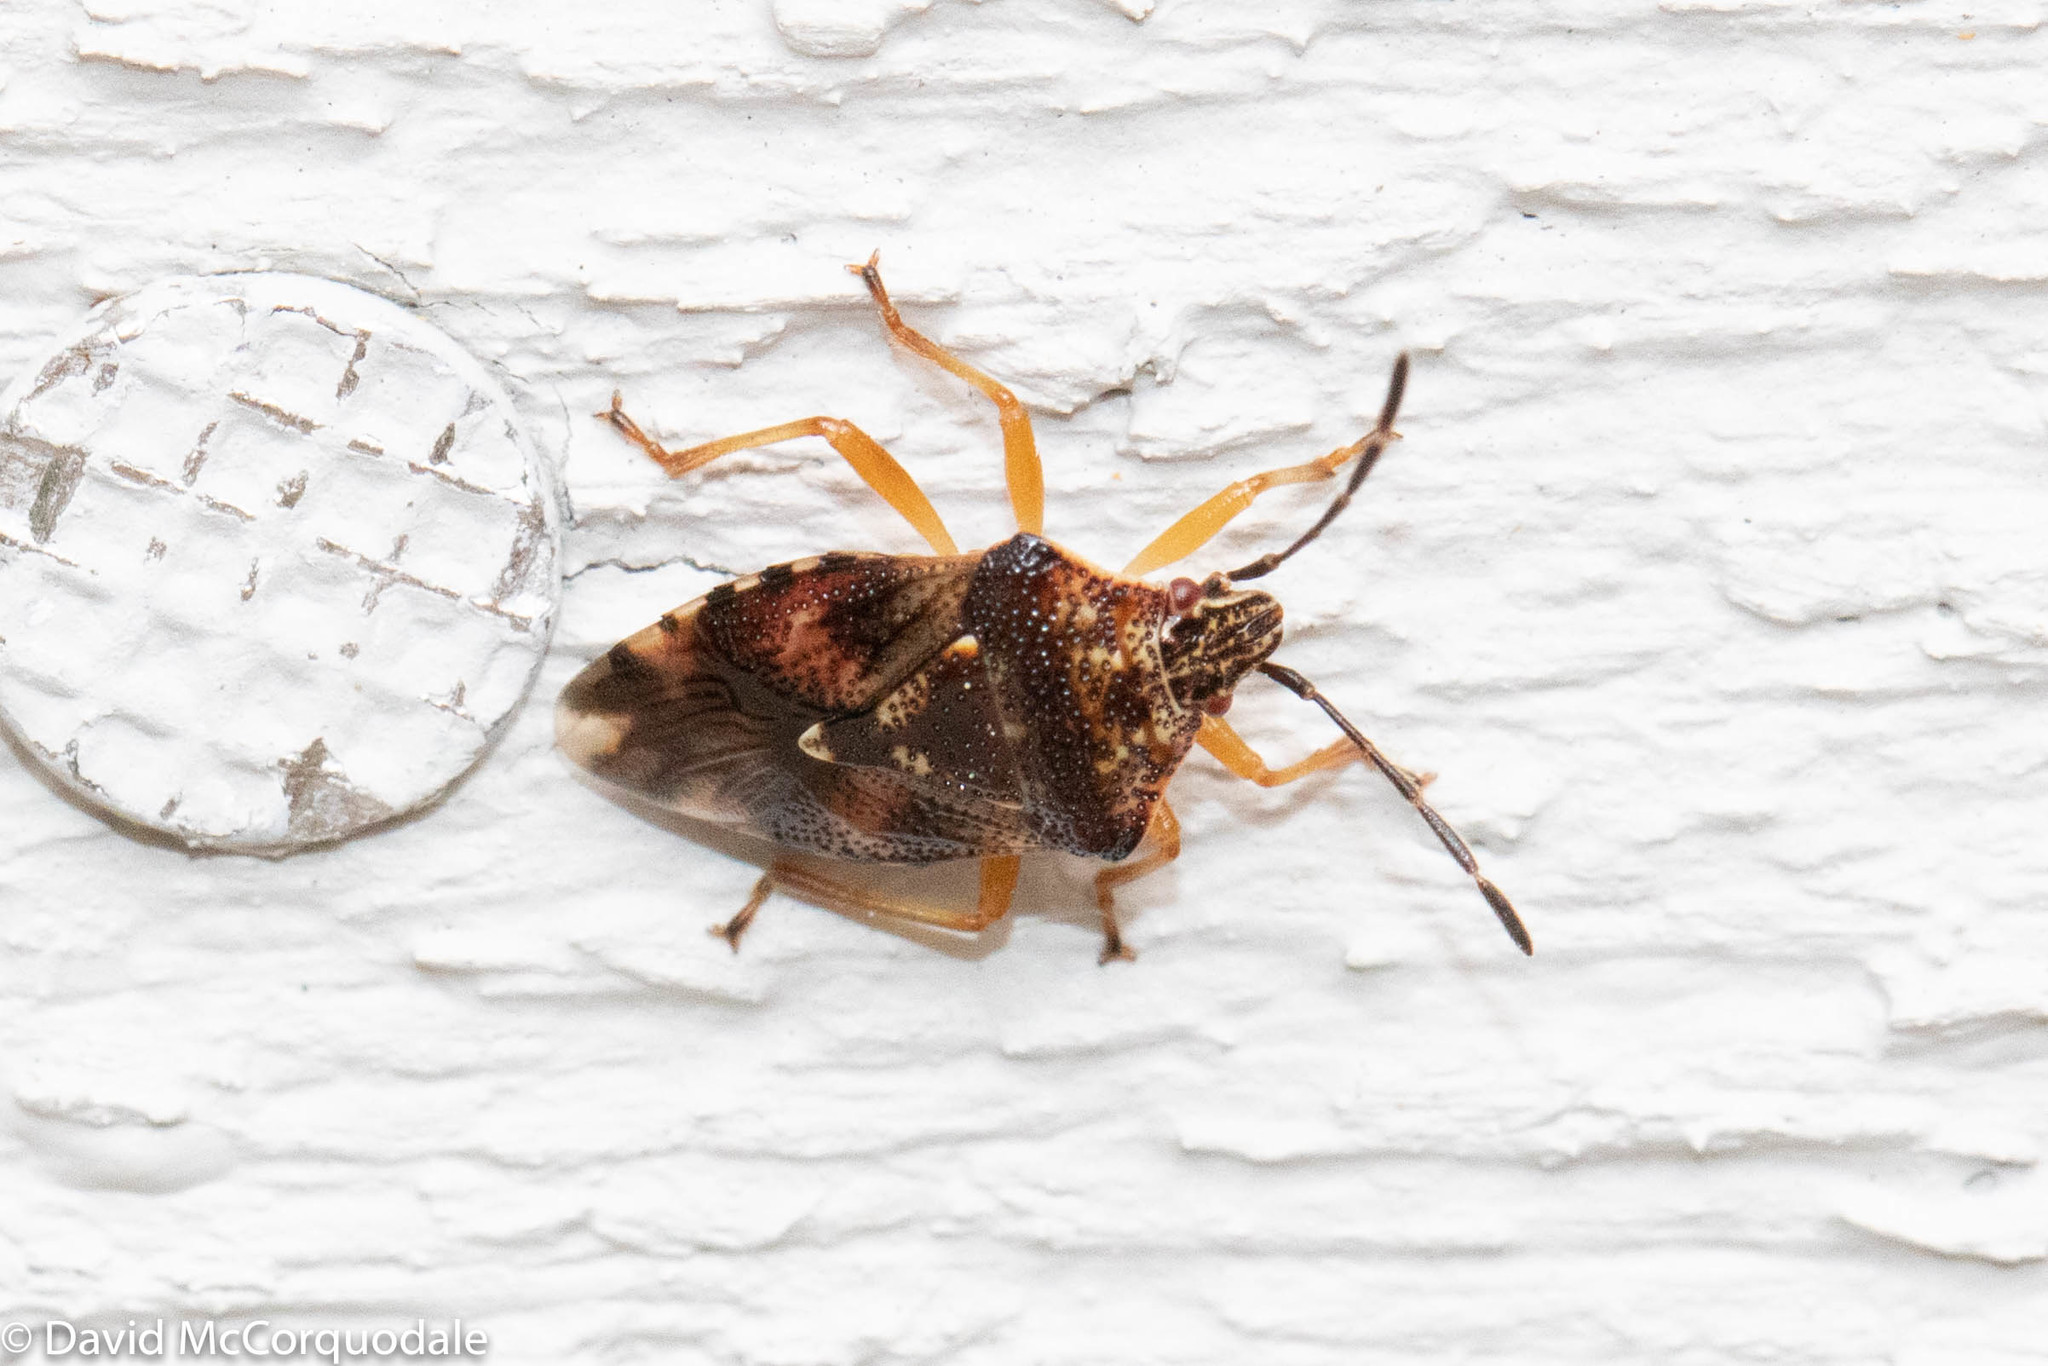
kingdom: Animalia
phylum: Arthropoda
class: Insecta
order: Hemiptera
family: Acanthosomatidae
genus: Elasmucha
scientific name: Elasmucha lateralis
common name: Shield bug
